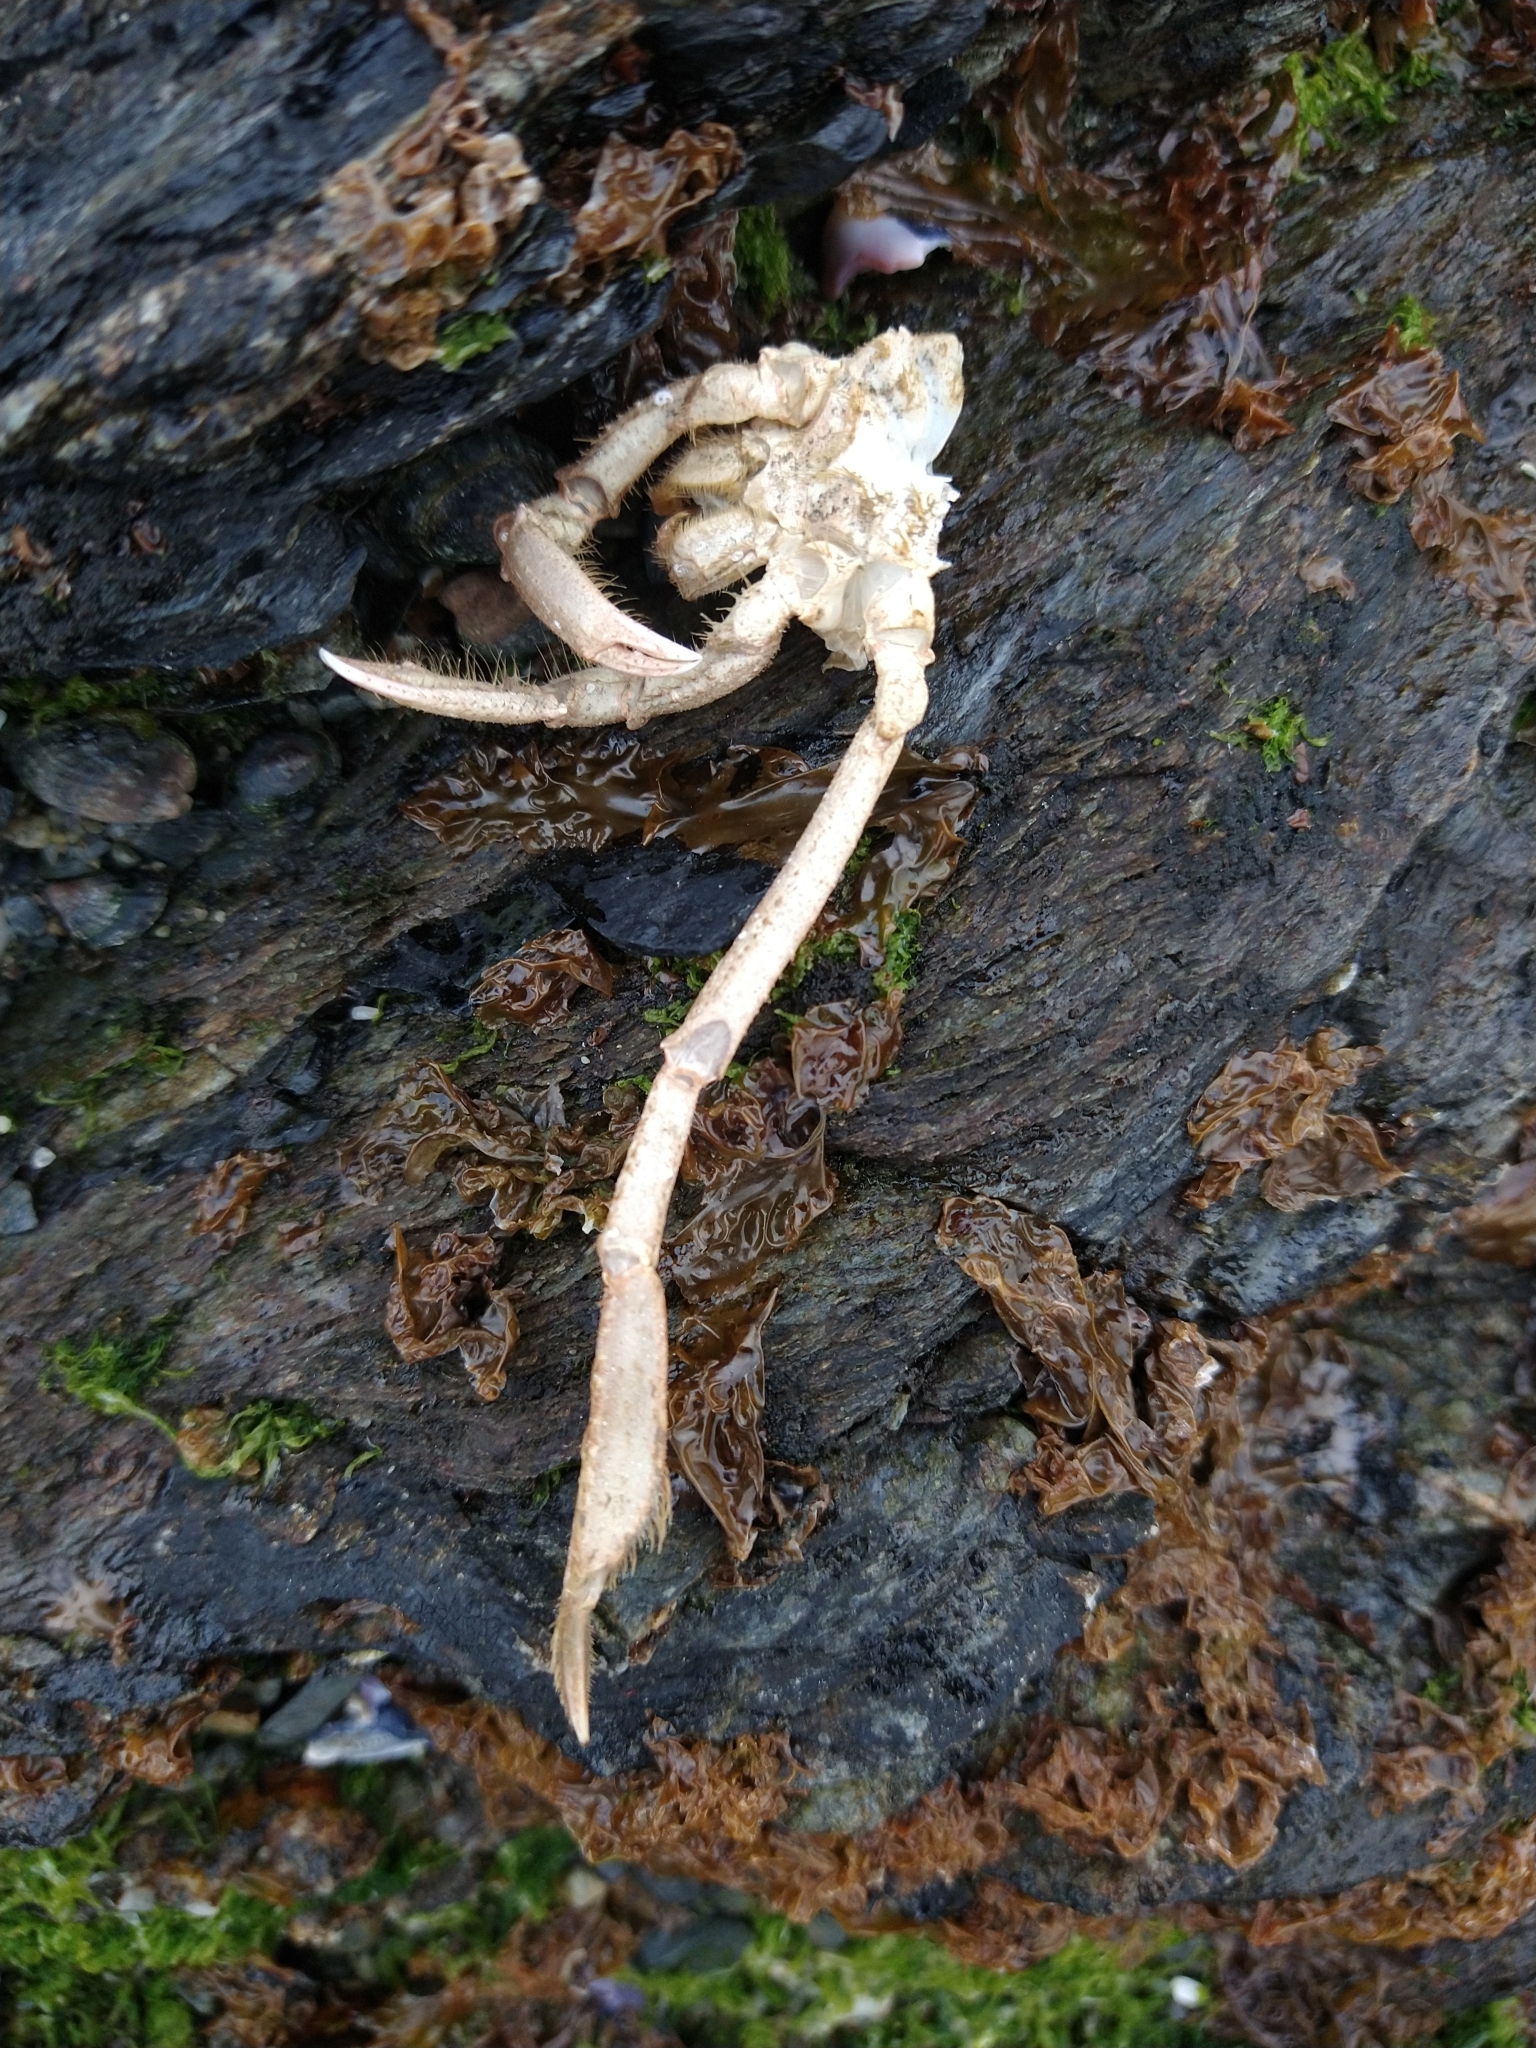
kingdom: Animalia
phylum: Arthropoda
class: Malacostraca
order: Decapoda
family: Inachidae
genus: Eurypodius
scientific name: Eurypodius longirostris
